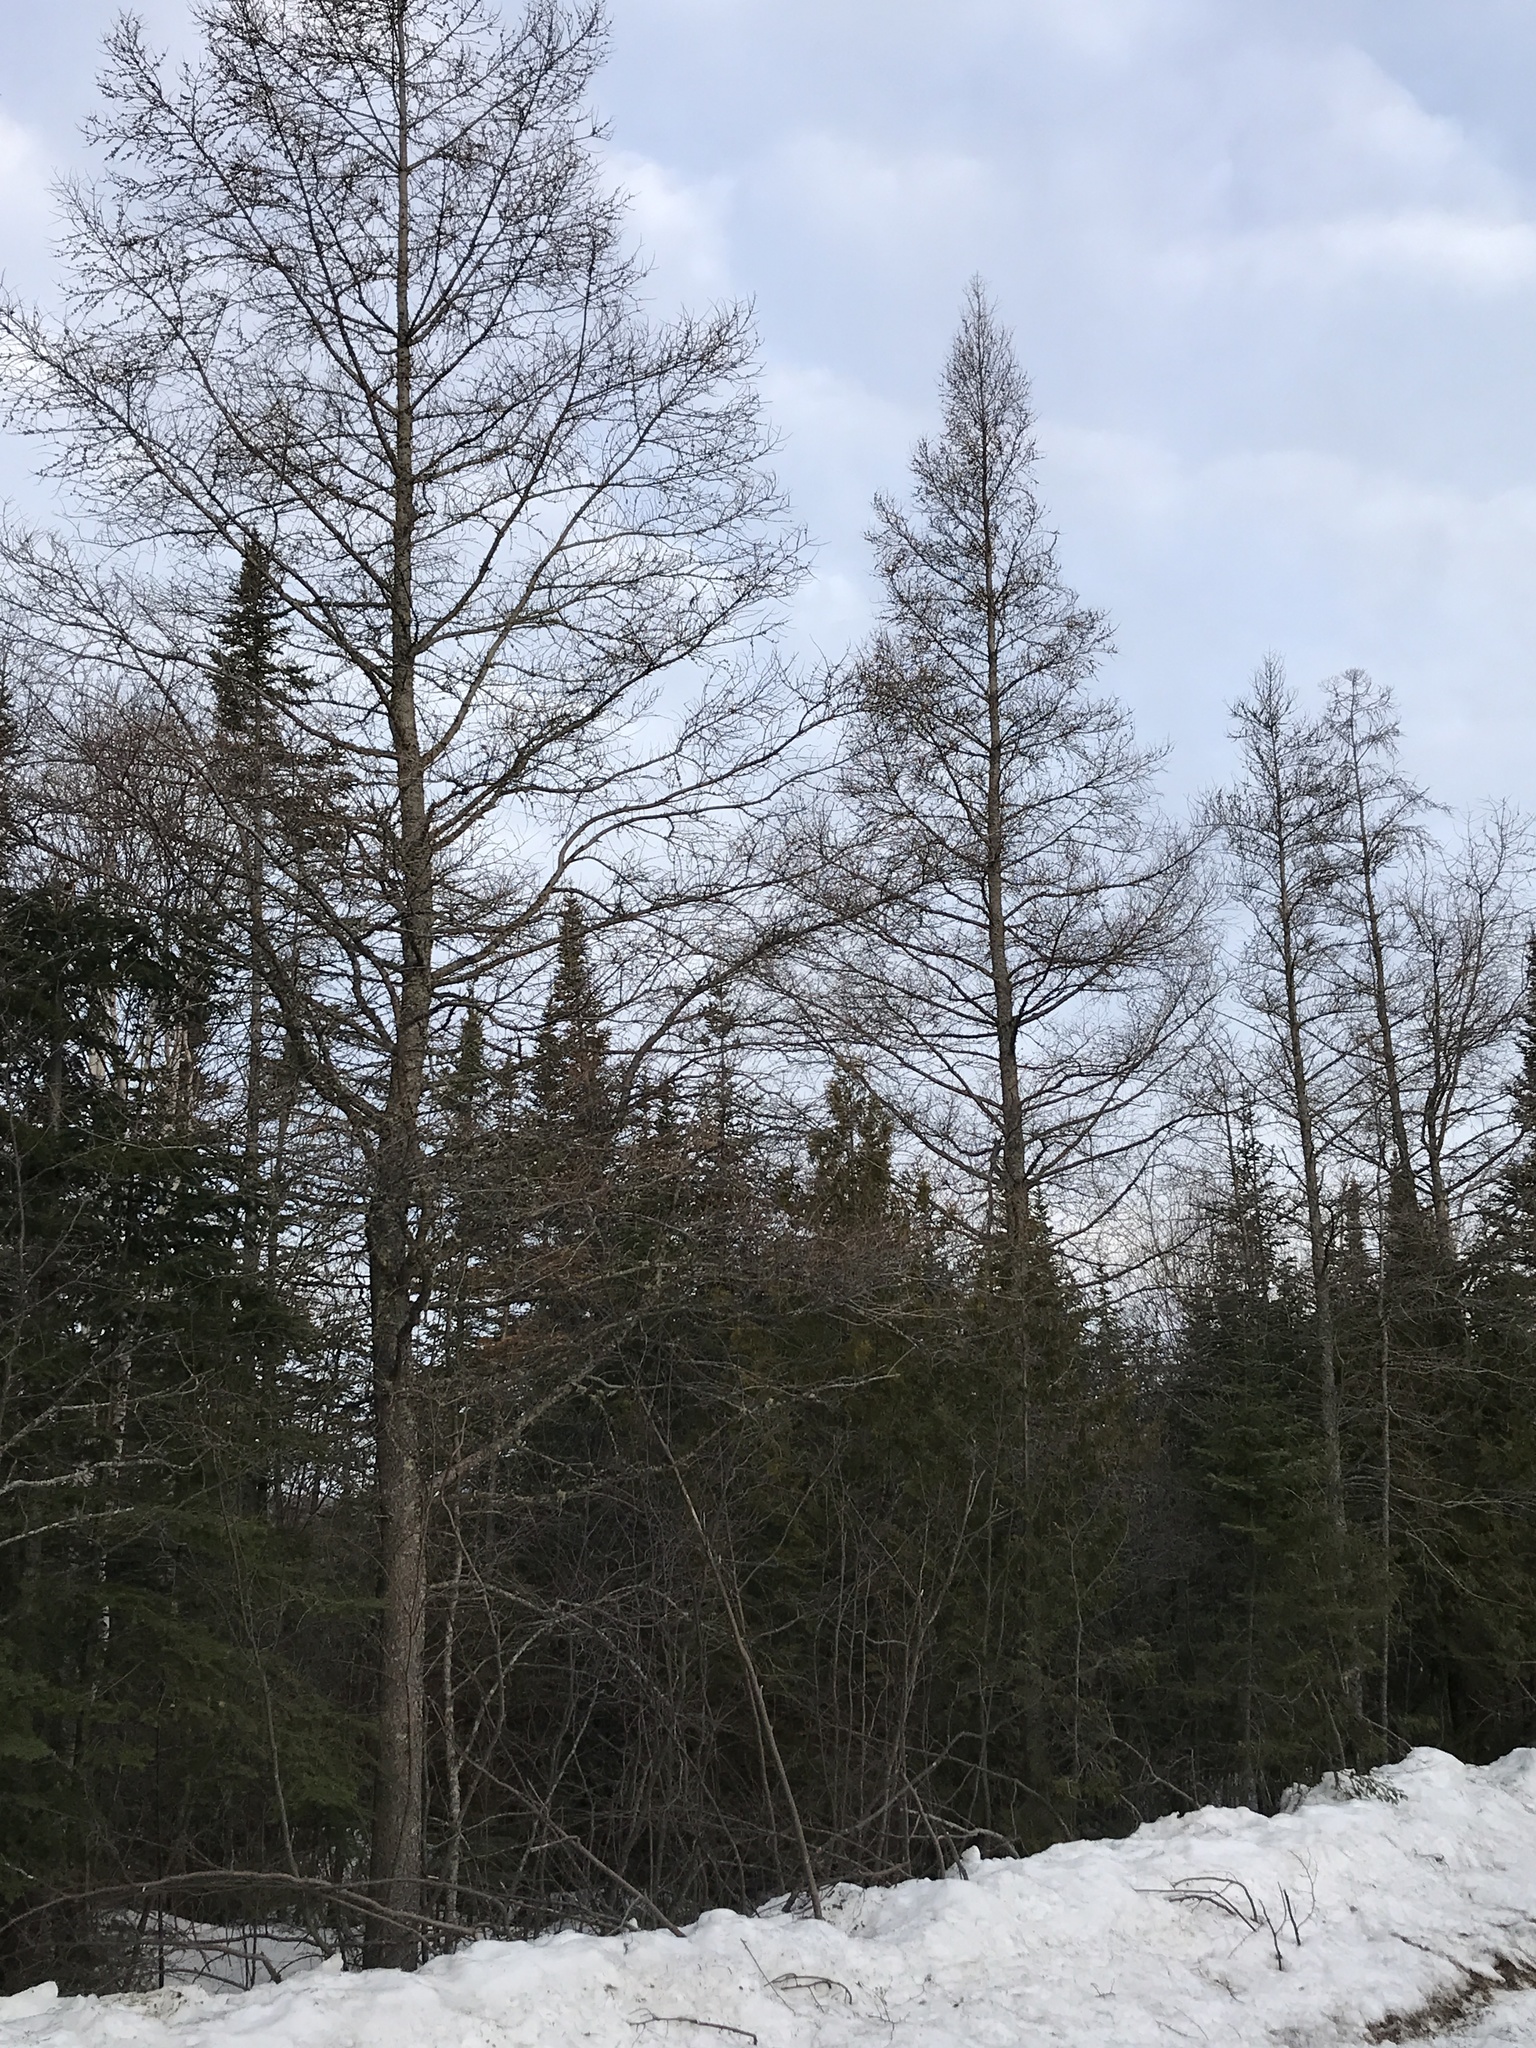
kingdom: Plantae
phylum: Tracheophyta
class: Pinopsida
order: Pinales
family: Pinaceae
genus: Larix
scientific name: Larix laricina
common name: American larch
